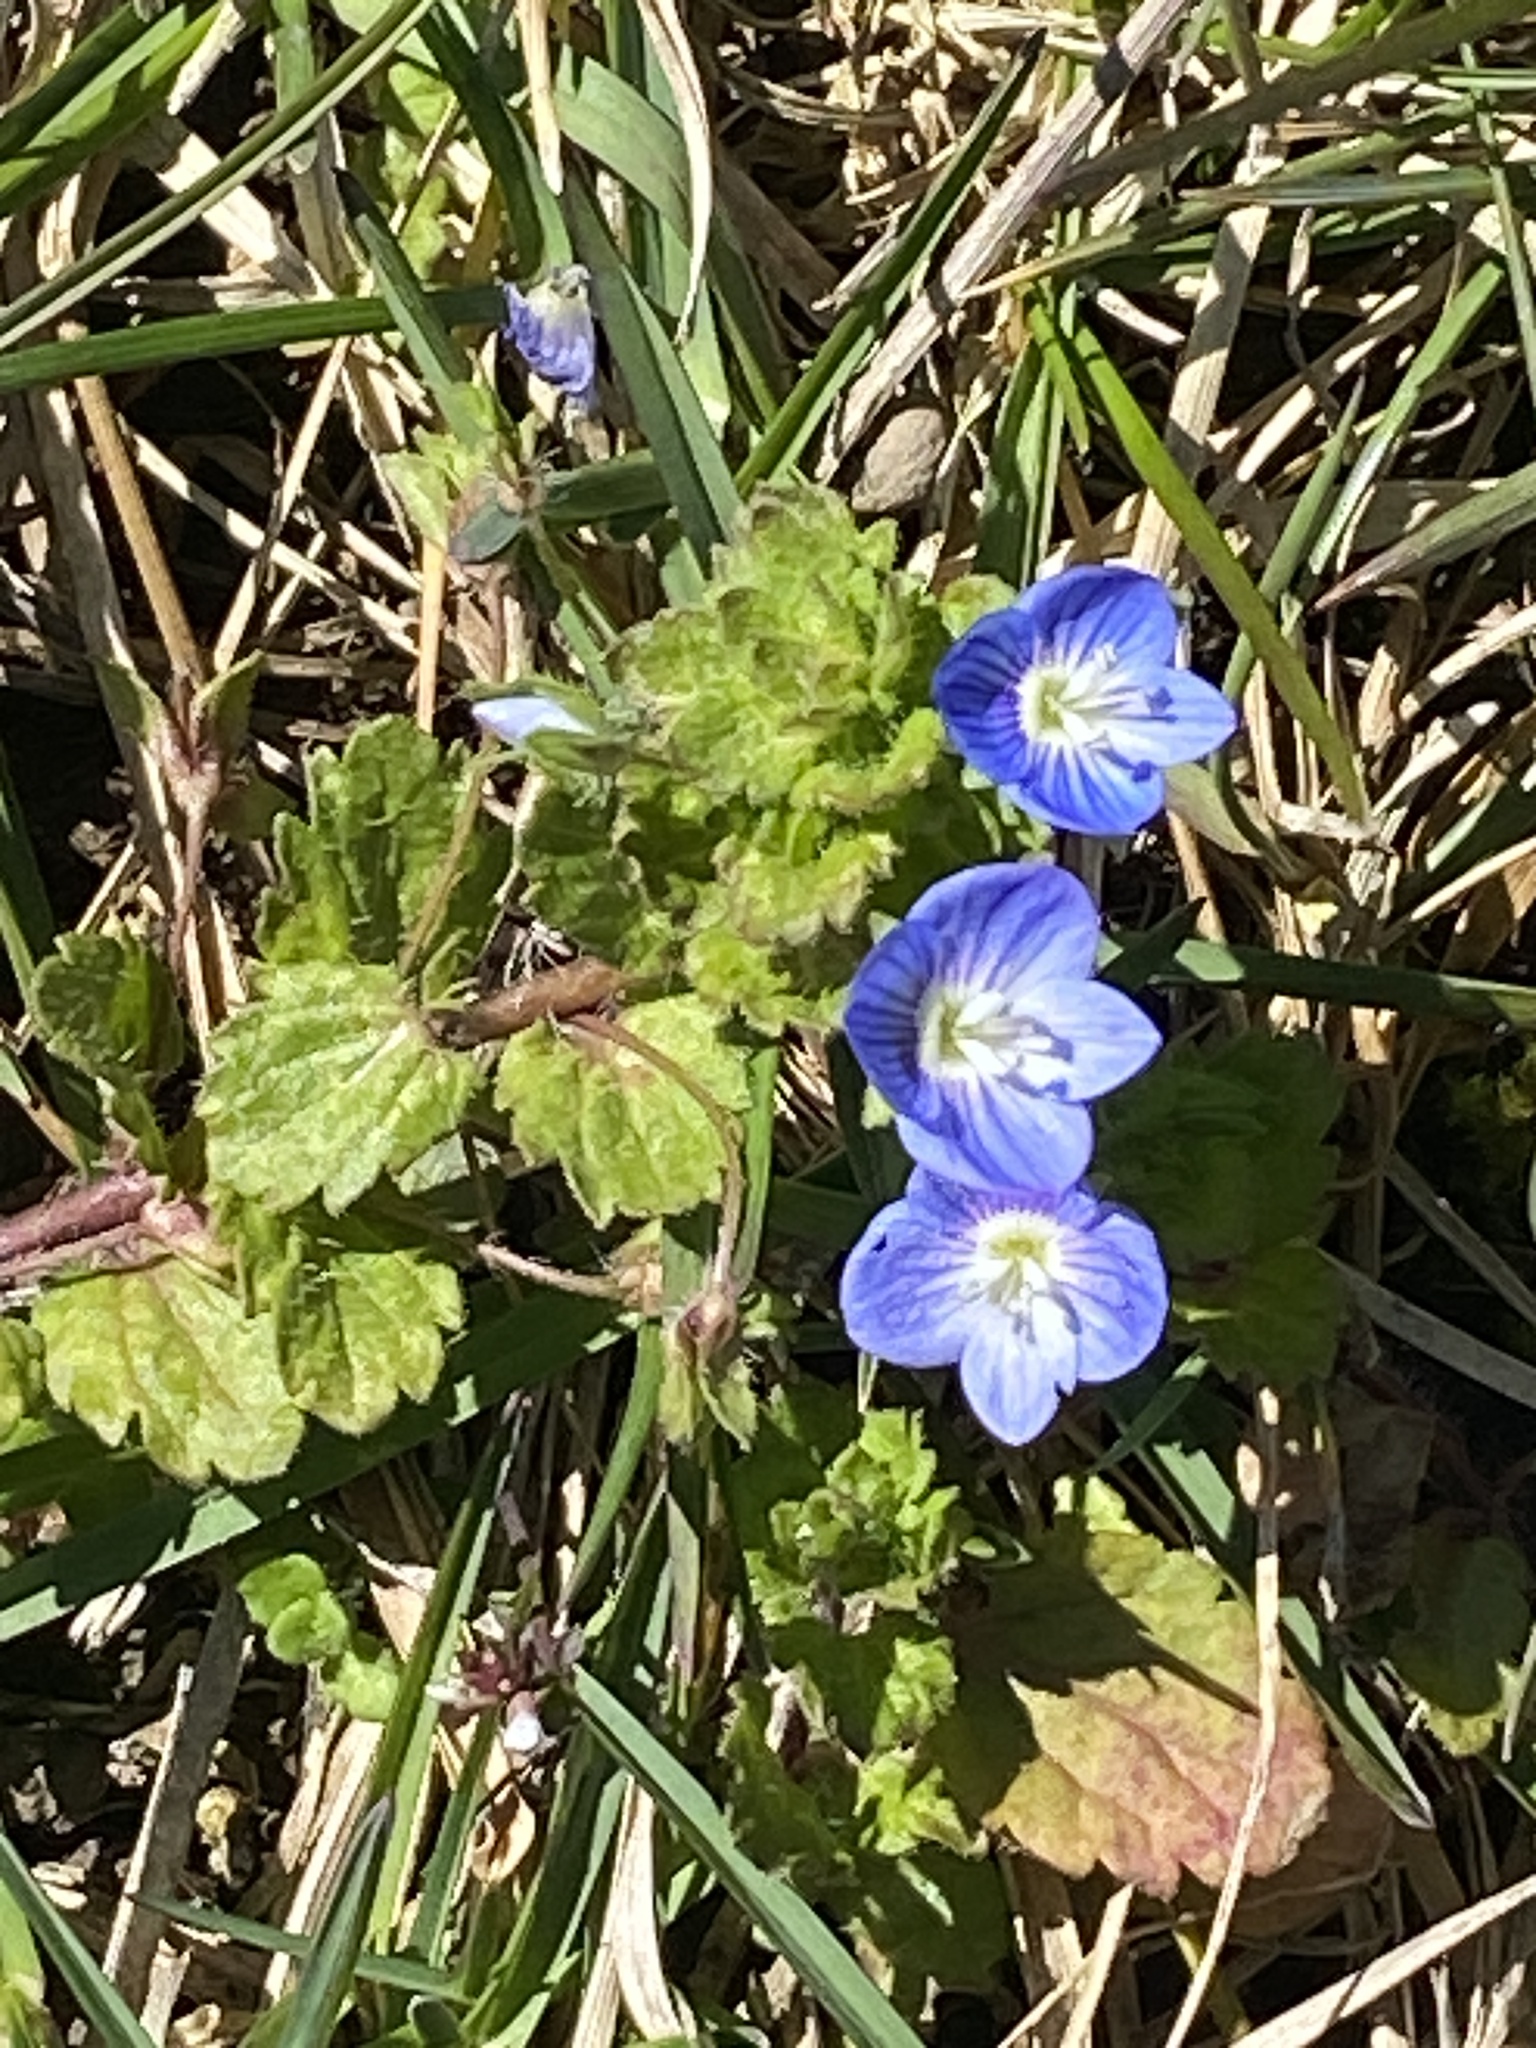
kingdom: Plantae
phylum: Tracheophyta
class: Magnoliopsida
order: Lamiales
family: Plantaginaceae
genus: Veronica
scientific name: Veronica persica
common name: Common field-speedwell
